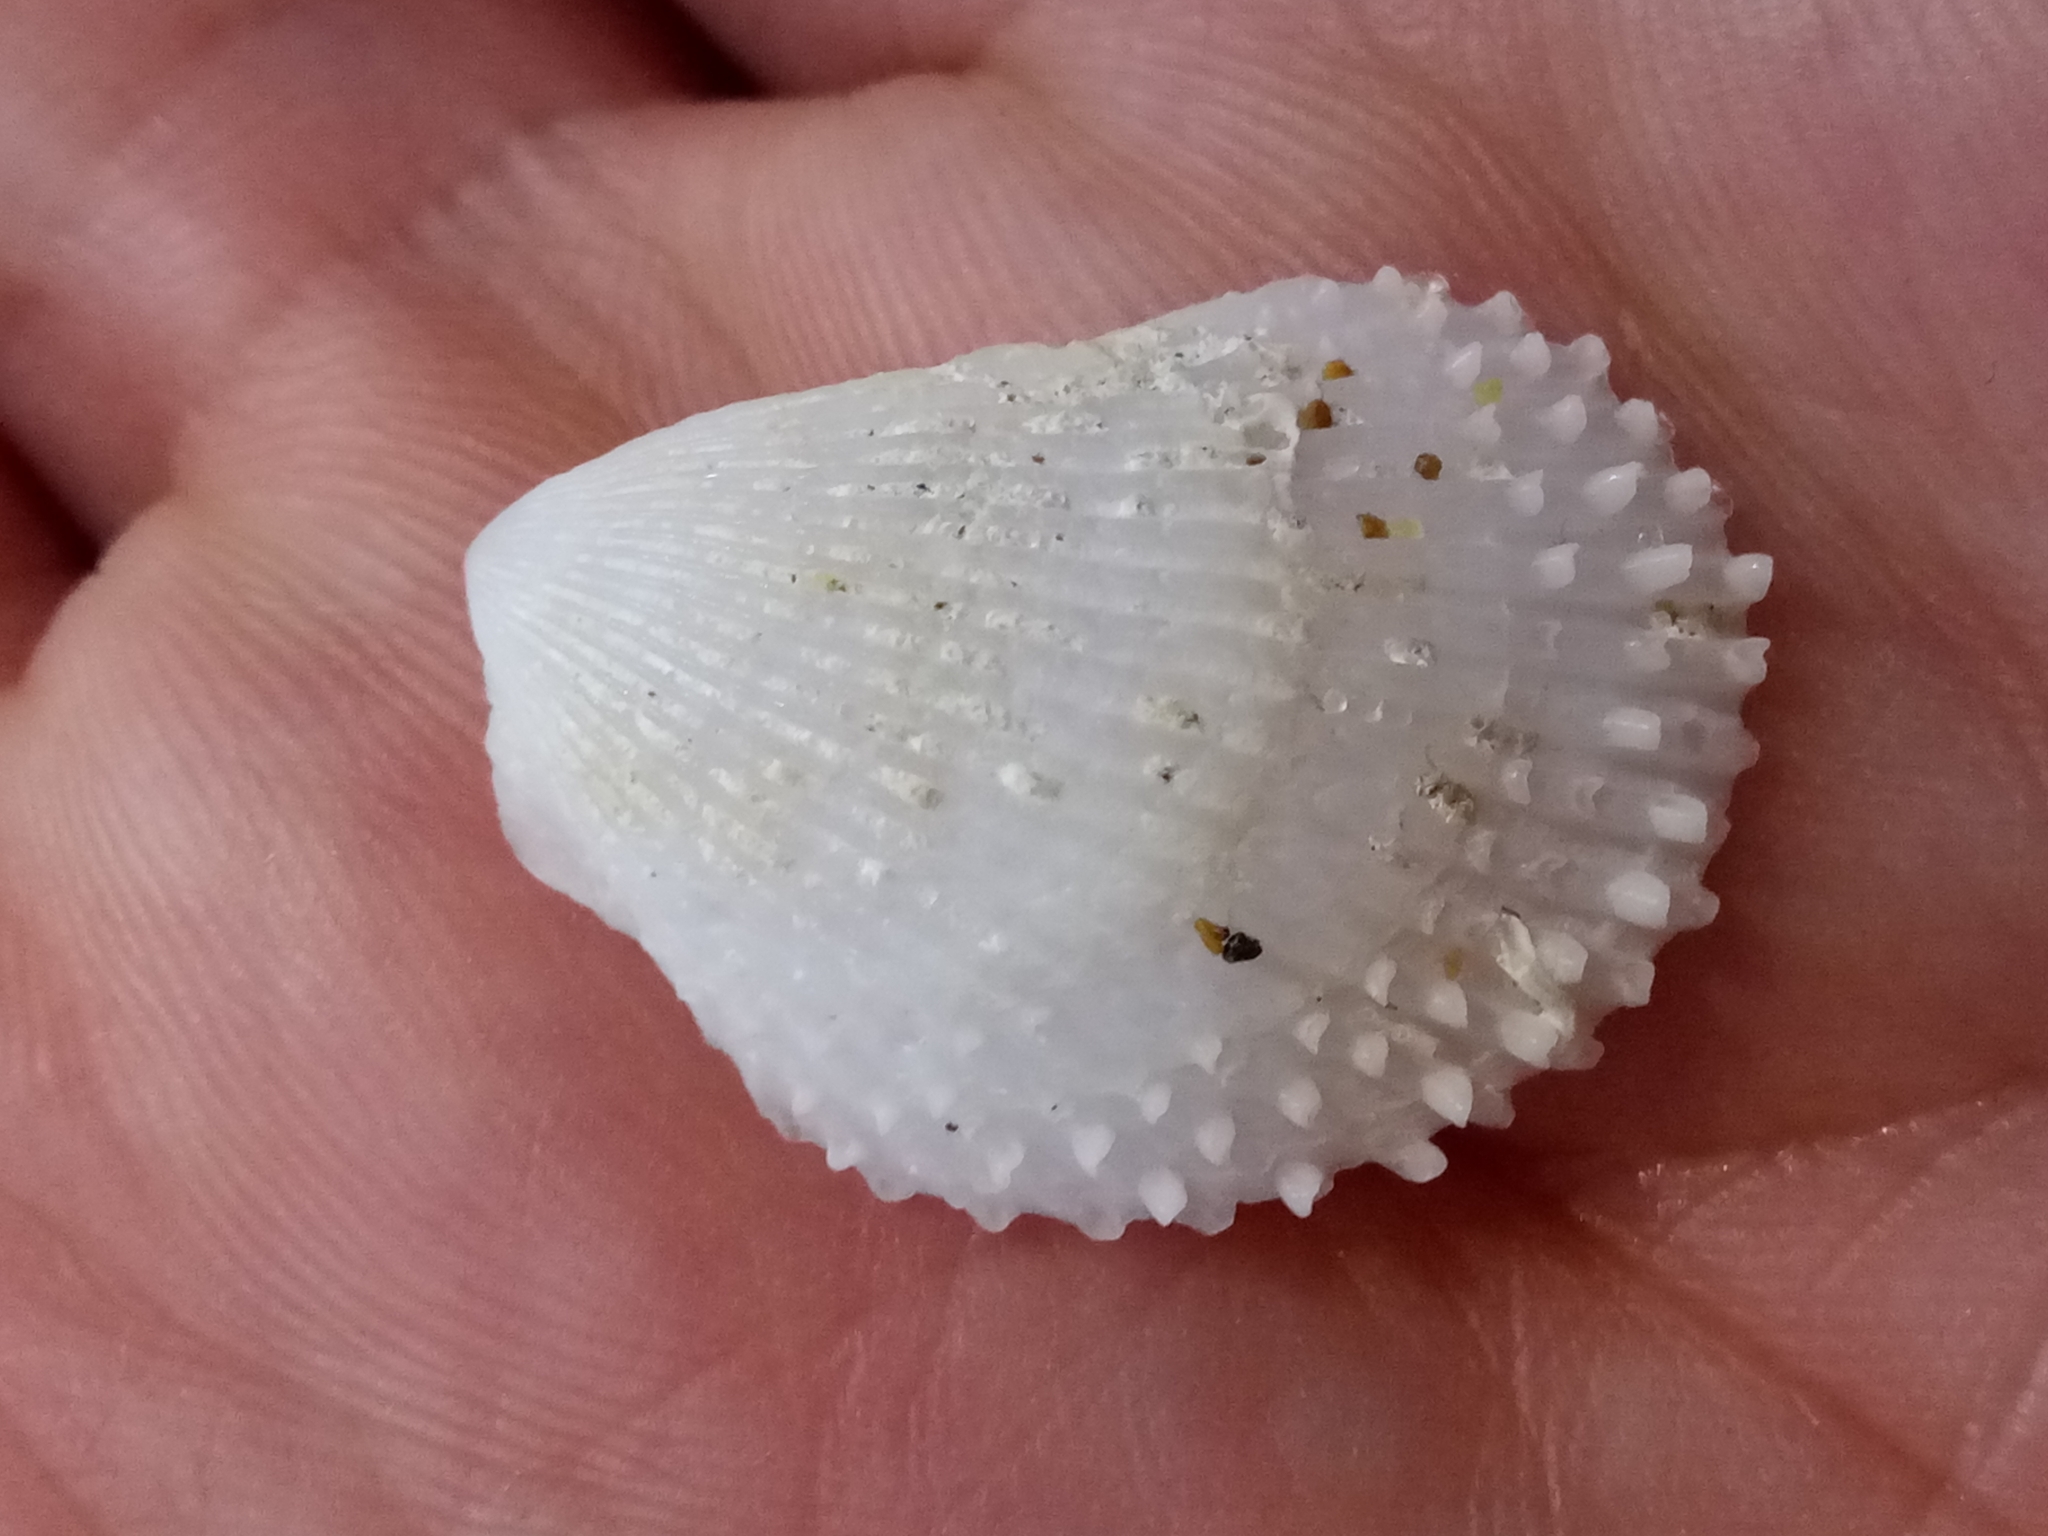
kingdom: Animalia
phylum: Mollusca
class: Bivalvia
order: Limida
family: Limidae
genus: Lima
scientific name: Lima lima
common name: Frilled file shell
